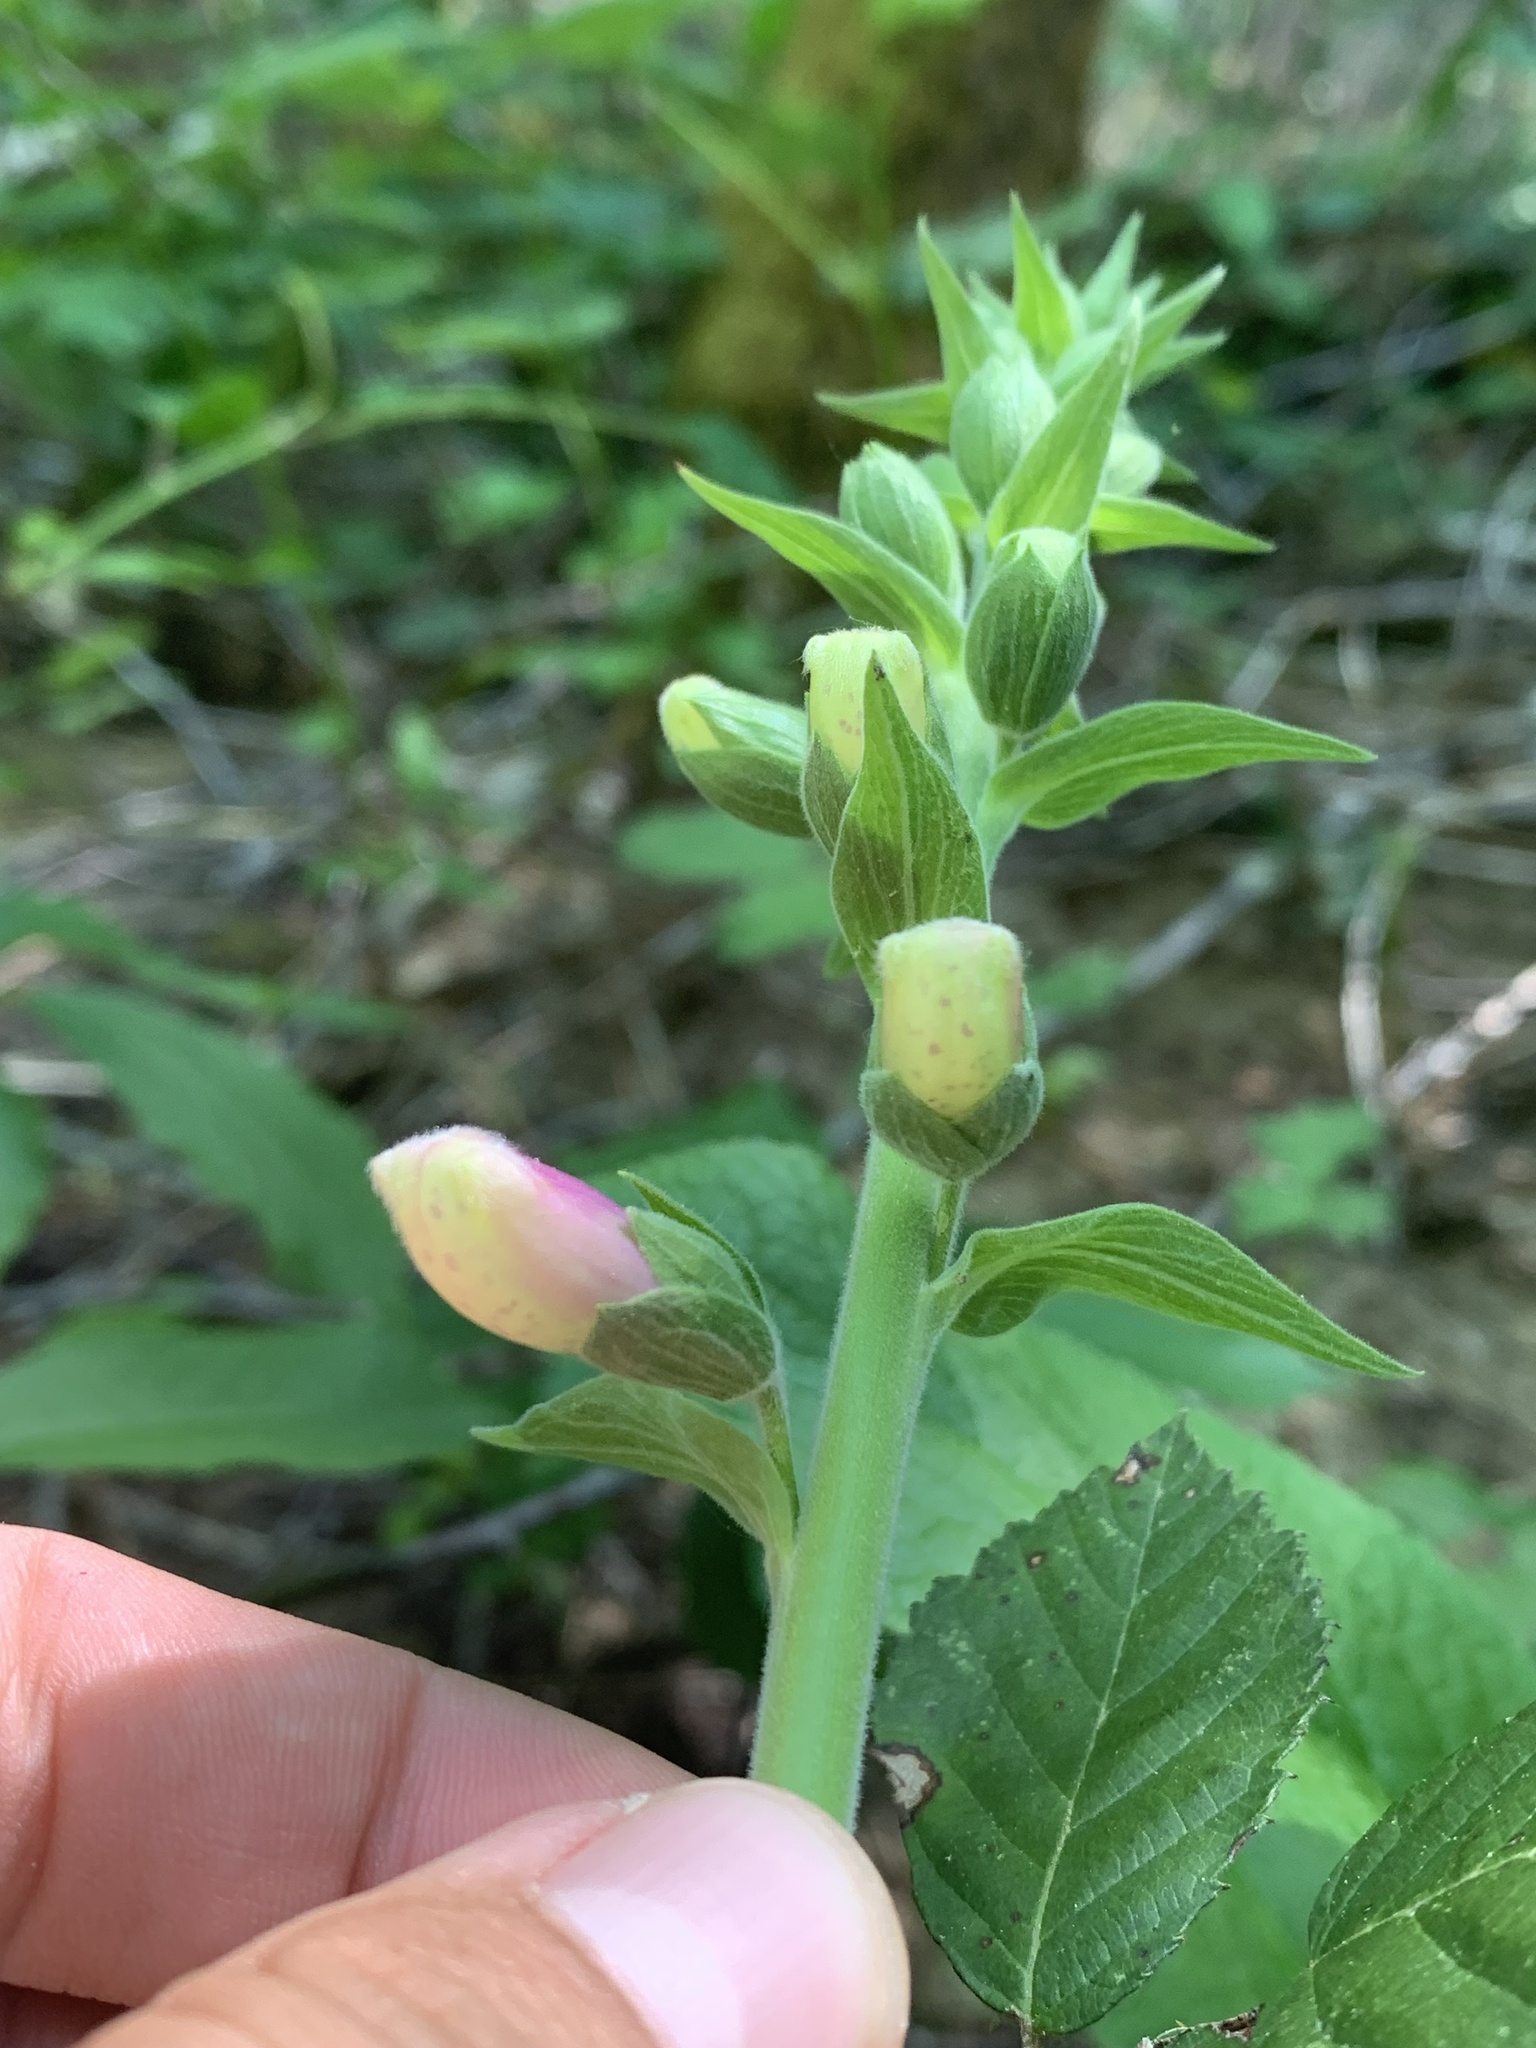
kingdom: Plantae
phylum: Tracheophyta
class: Magnoliopsida
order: Lamiales
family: Plantaginaceae
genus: Digitalis
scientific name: Digitalis purpurea
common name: Foxglove
